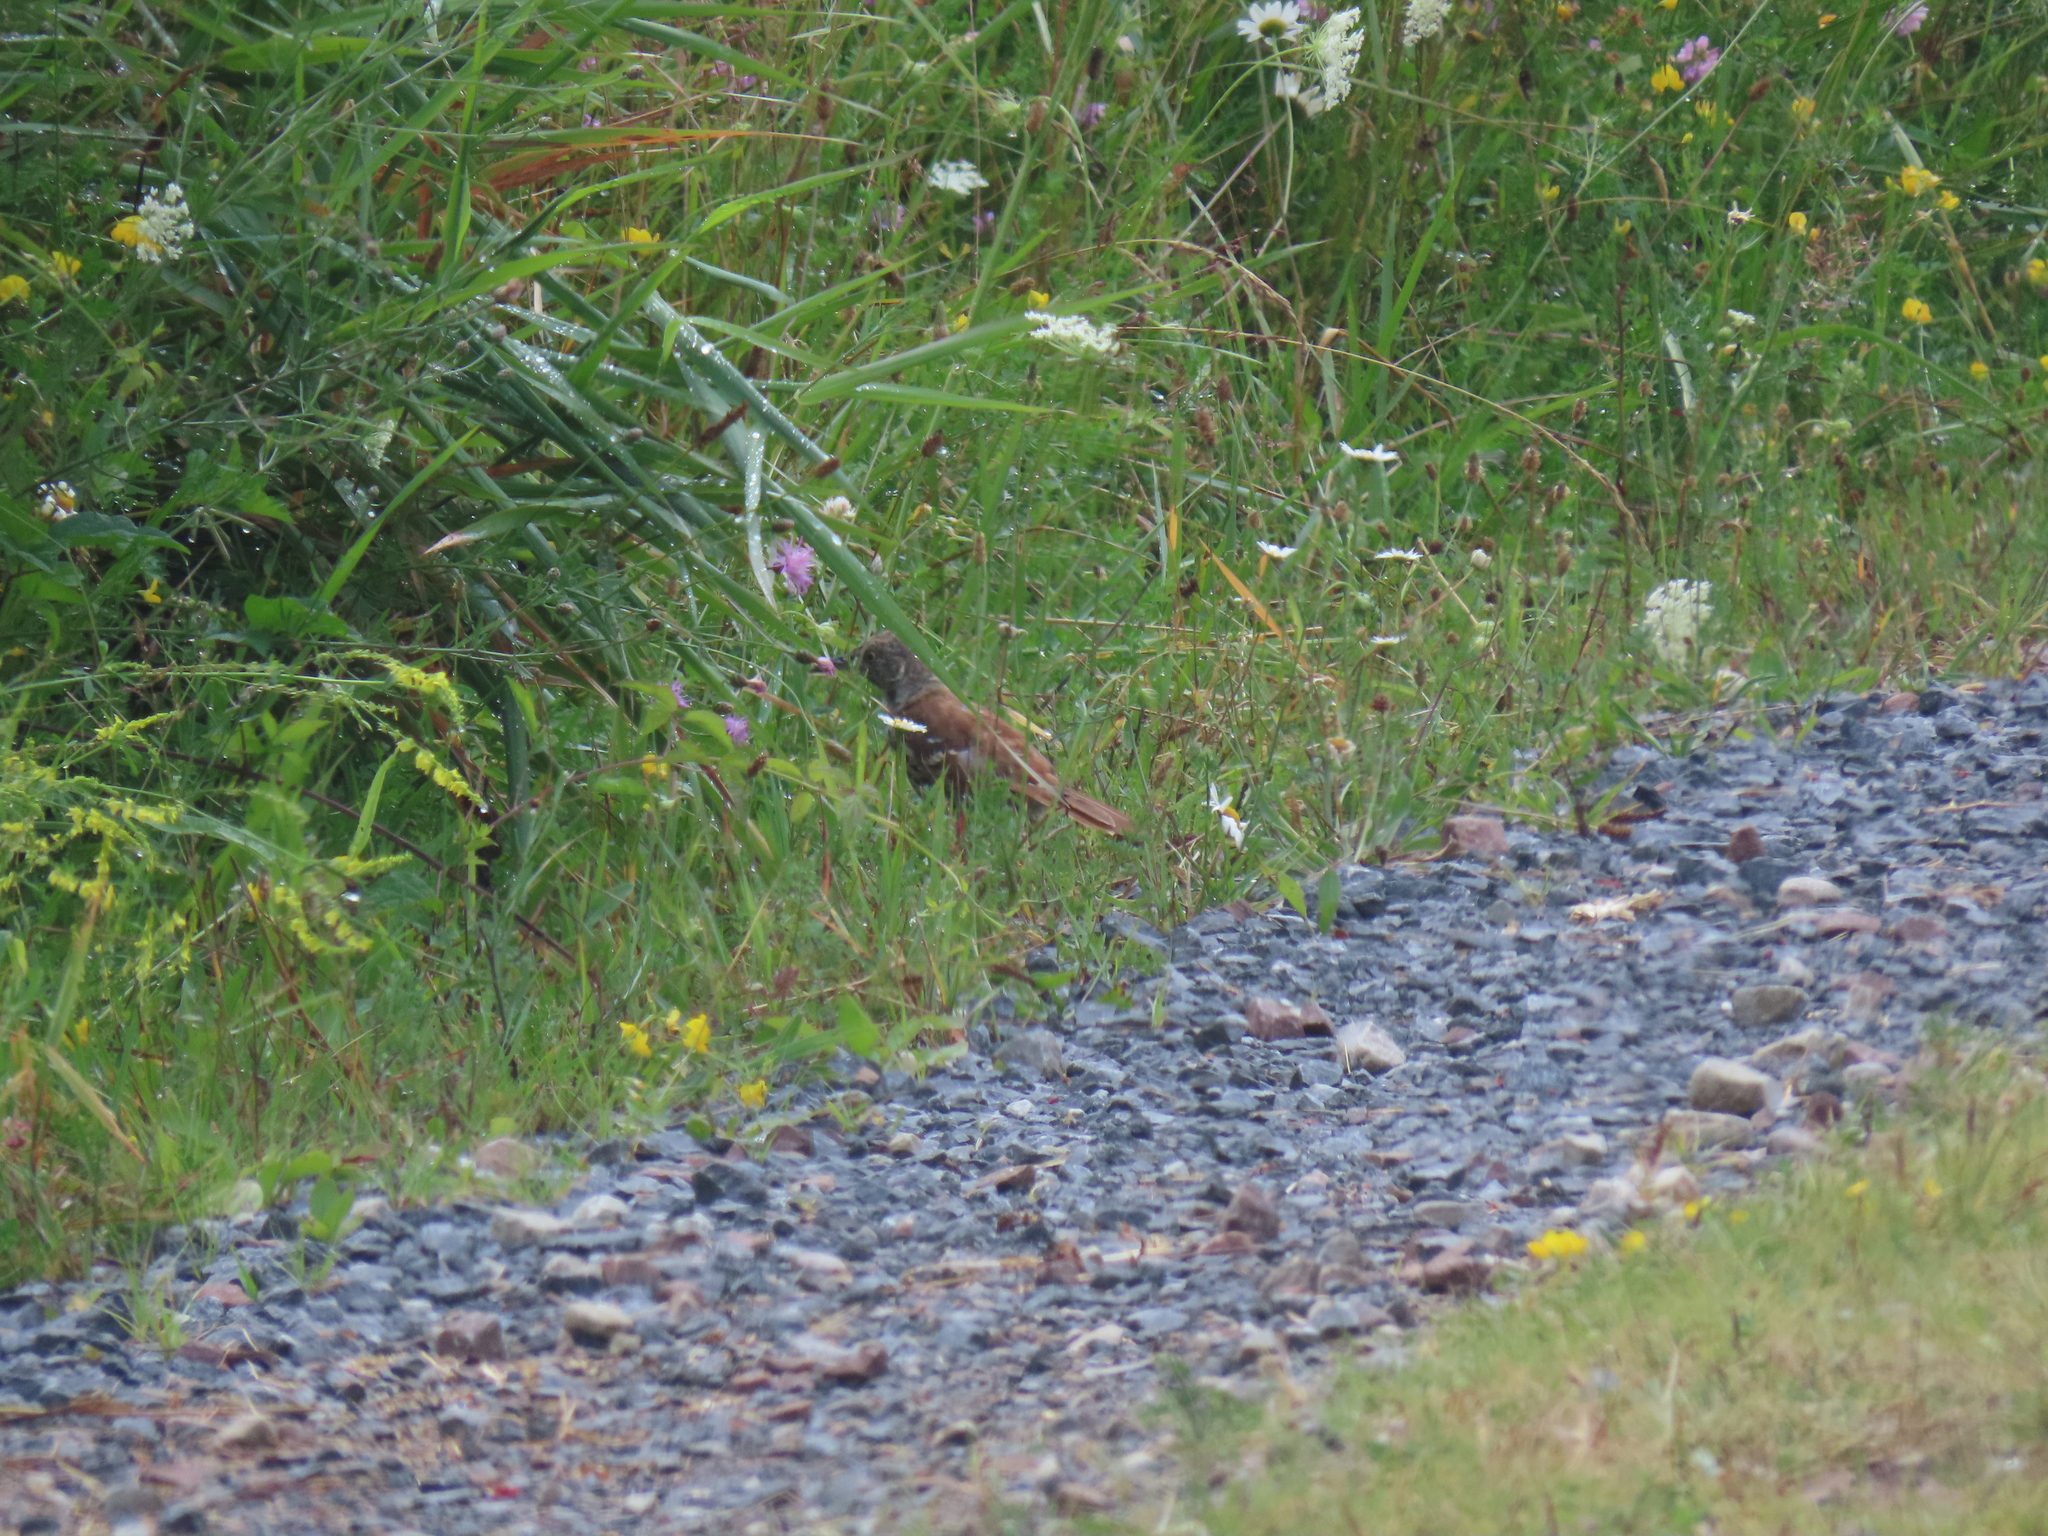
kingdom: Animalia
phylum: Chordata
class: Aves
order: Passeriformes
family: Mimidae
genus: Toxostoma
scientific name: Toxostoma rufum
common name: Brown thrasher
